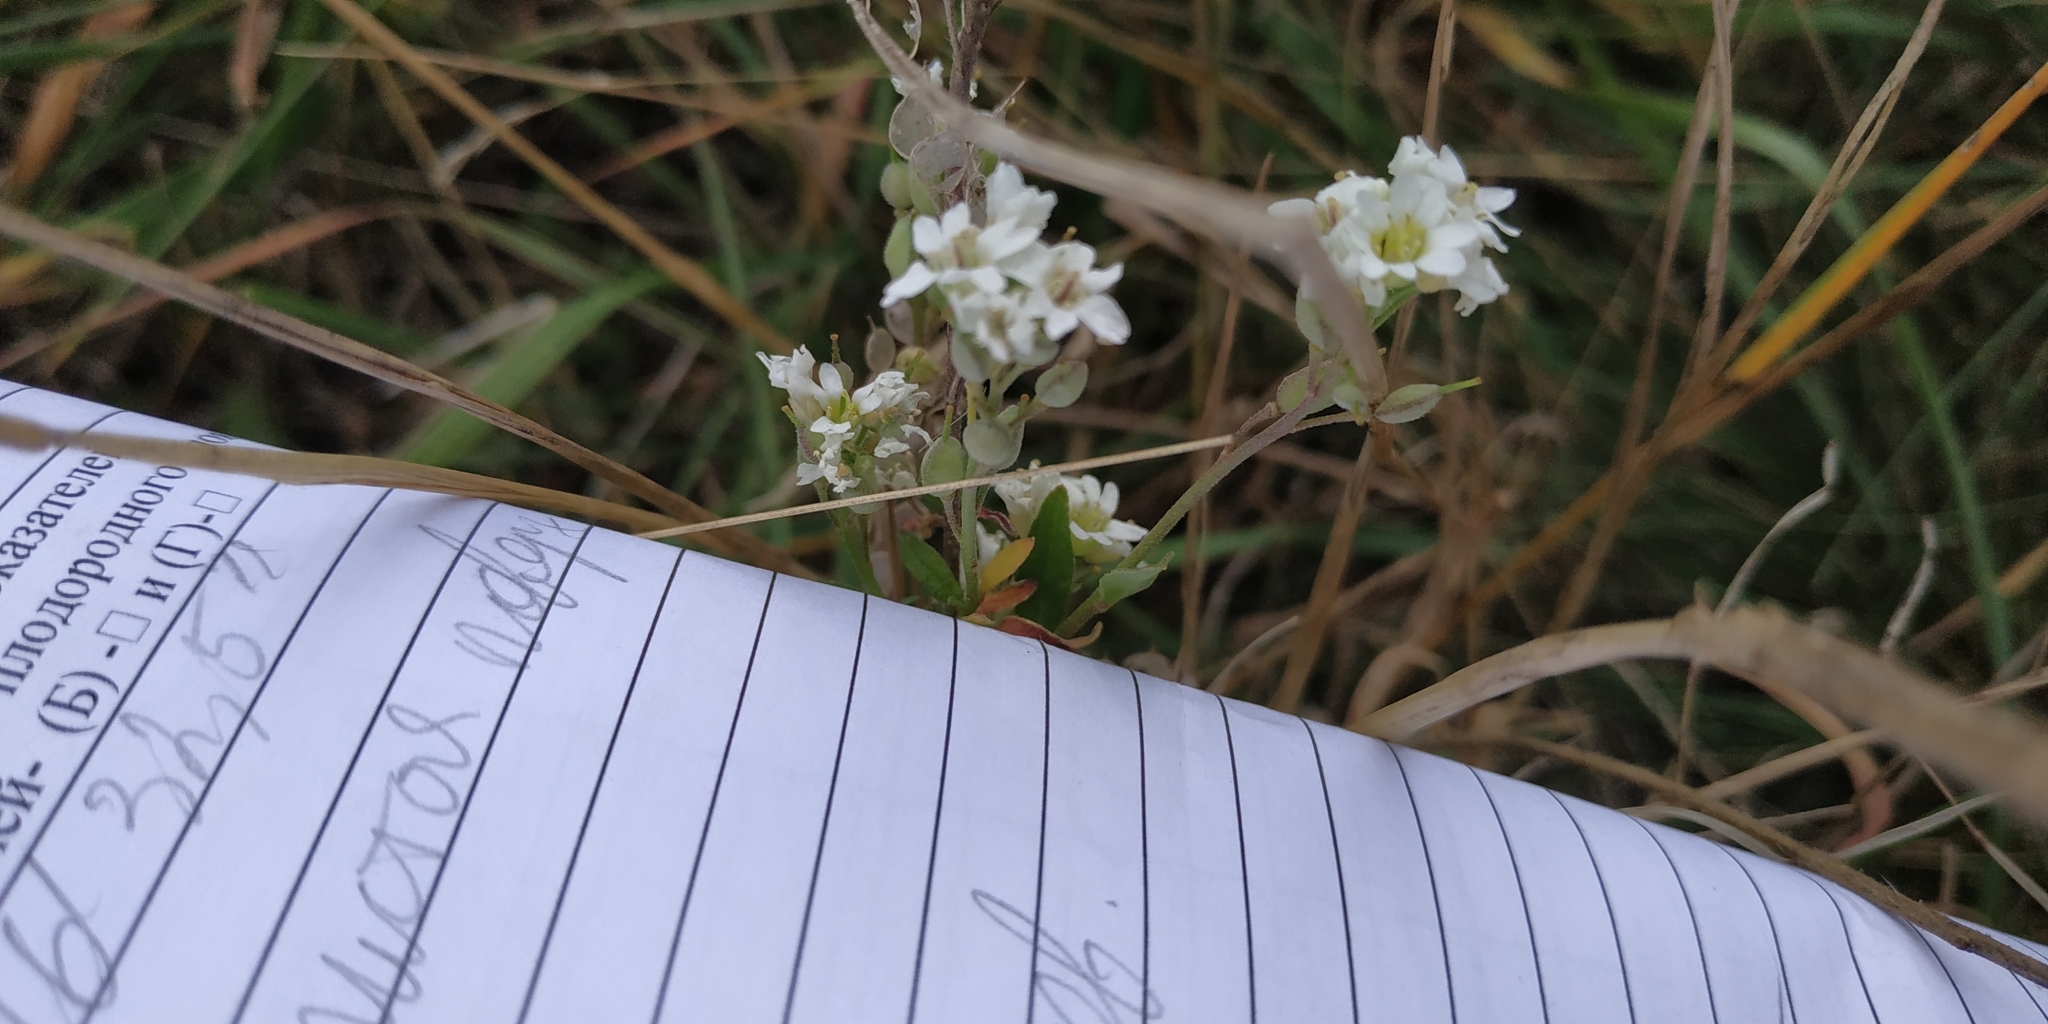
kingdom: Plantae
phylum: Tracheophyta
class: Magnoliopsida
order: Brassicales
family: Brassicaceae
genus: Berteroa
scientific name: Berteroa incana
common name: Hoary alison
